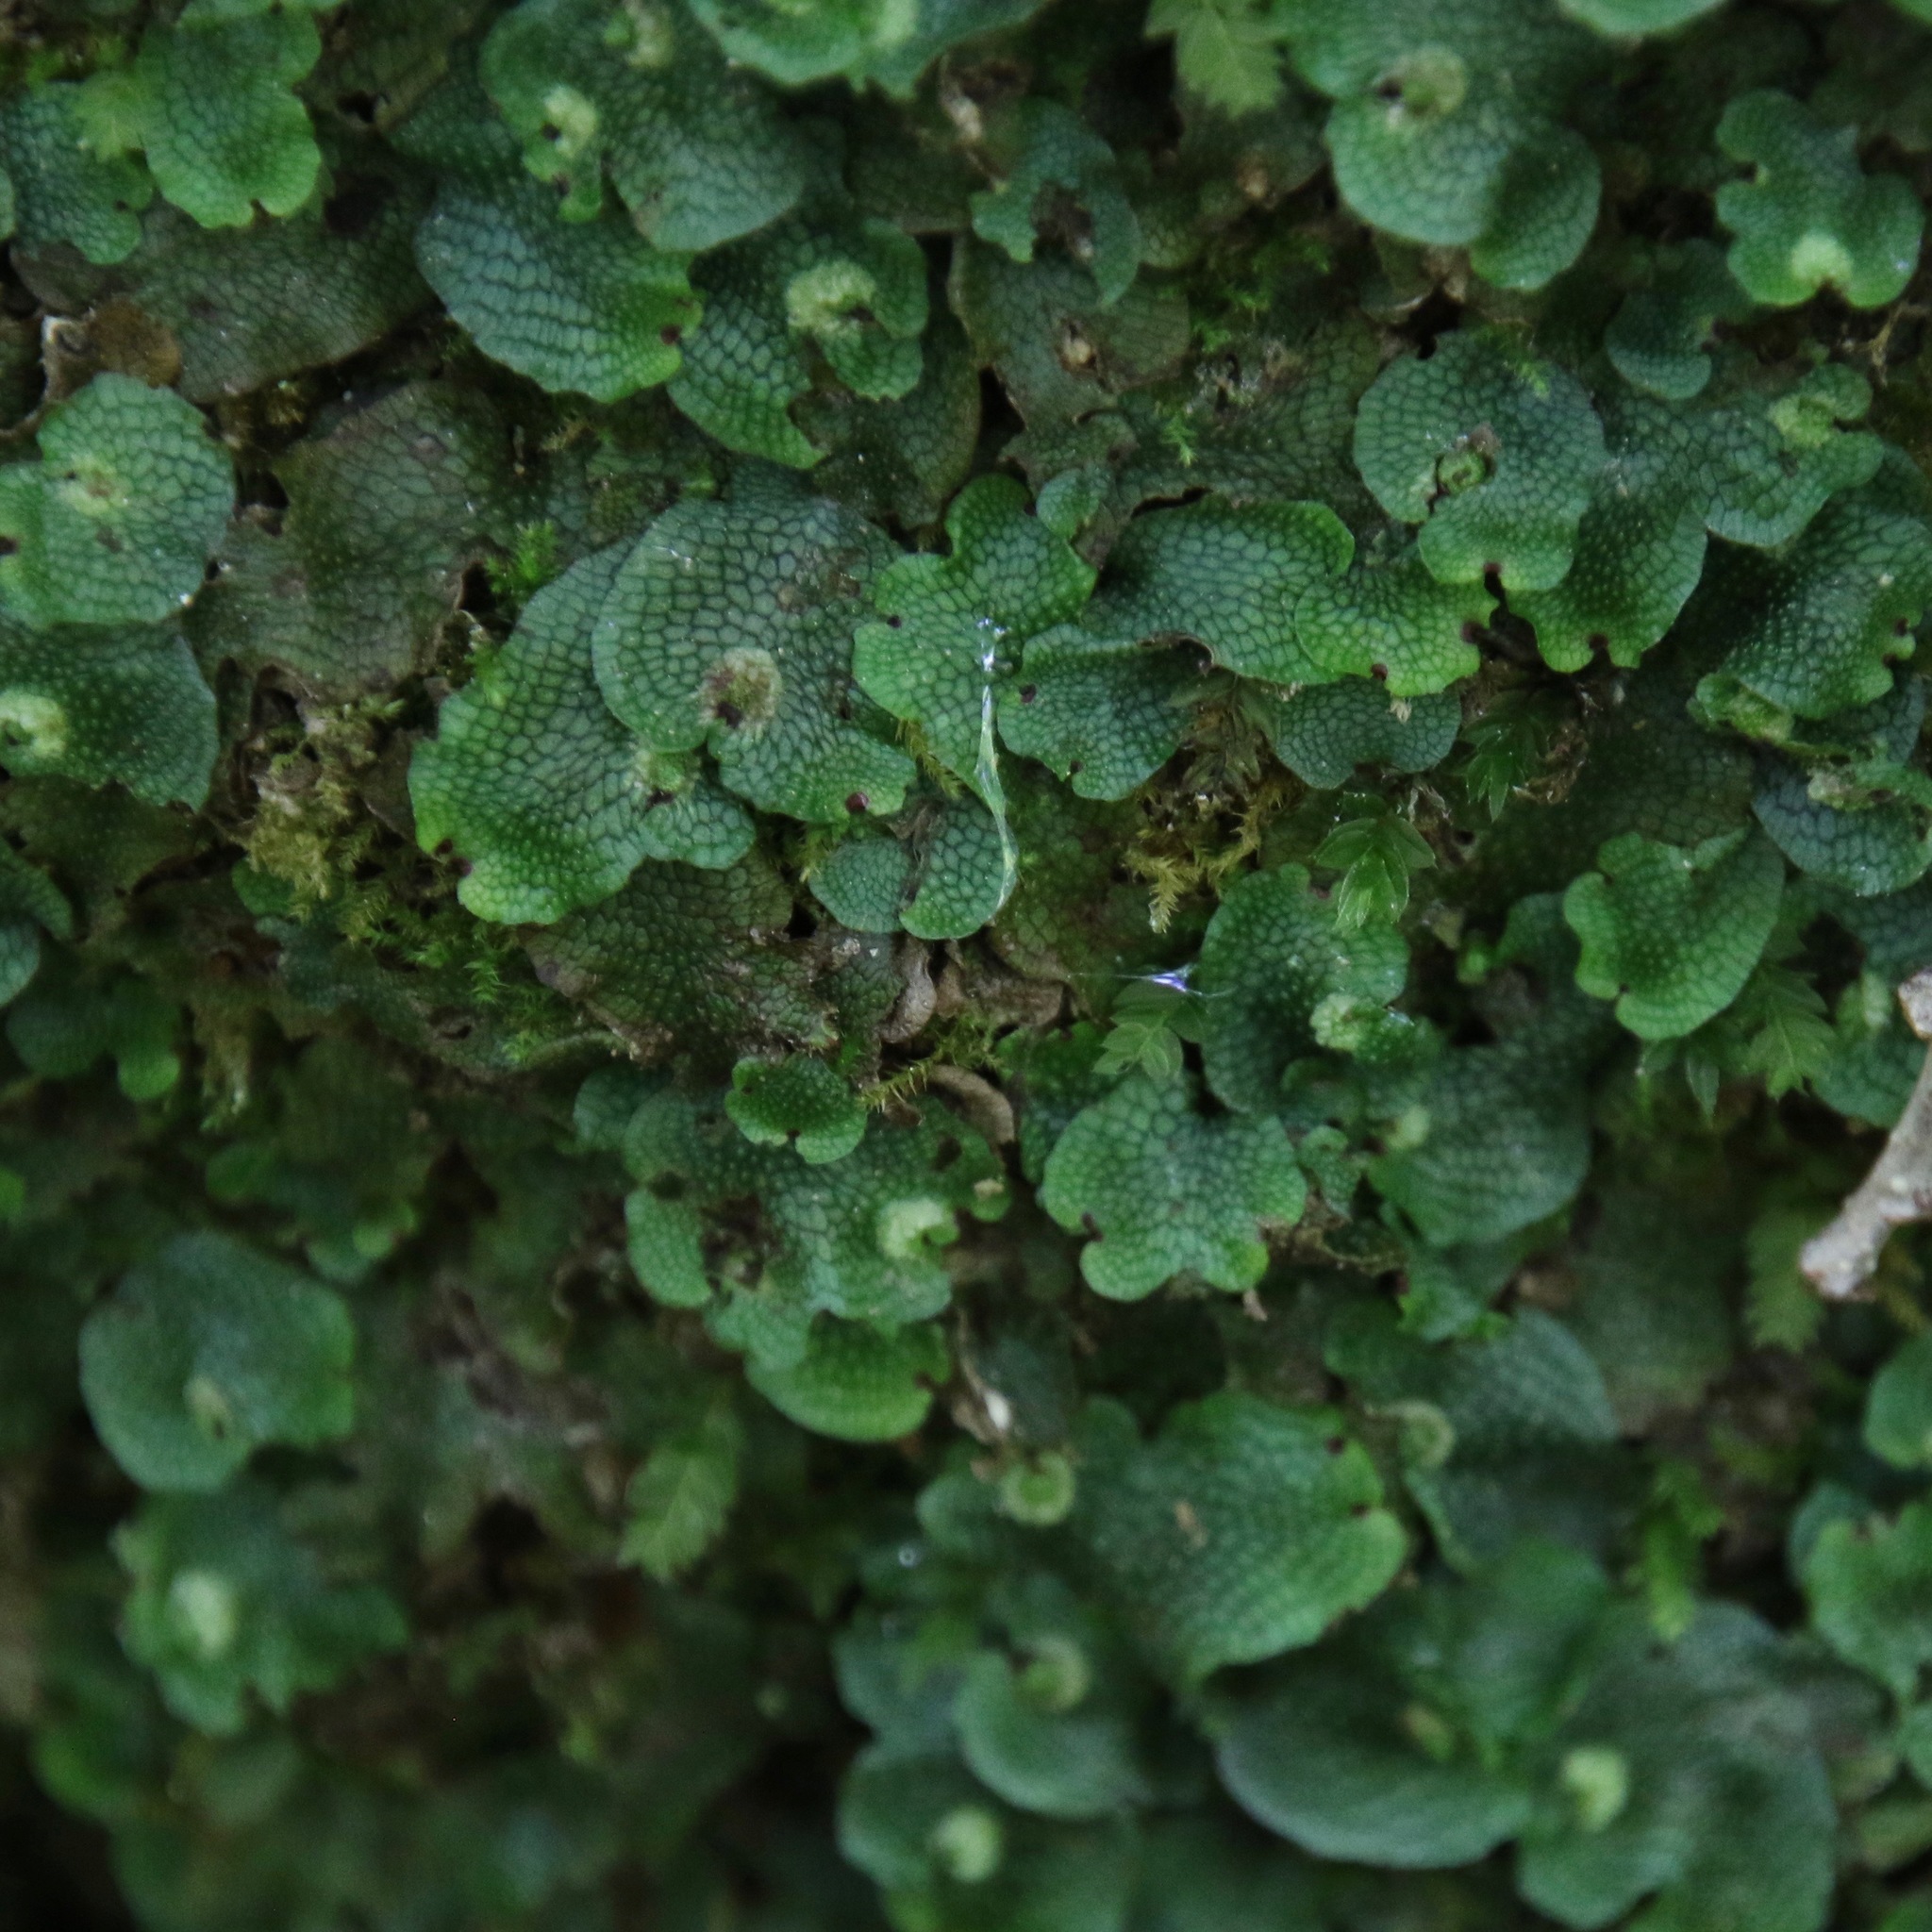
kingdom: Plantae
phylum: Marchantiophyta
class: Marchantiopsida
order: Marchantiales
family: Conocephalaceae
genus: Conocephalum
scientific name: Conocephalum salebrosum
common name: Cat-tongue liverwort
